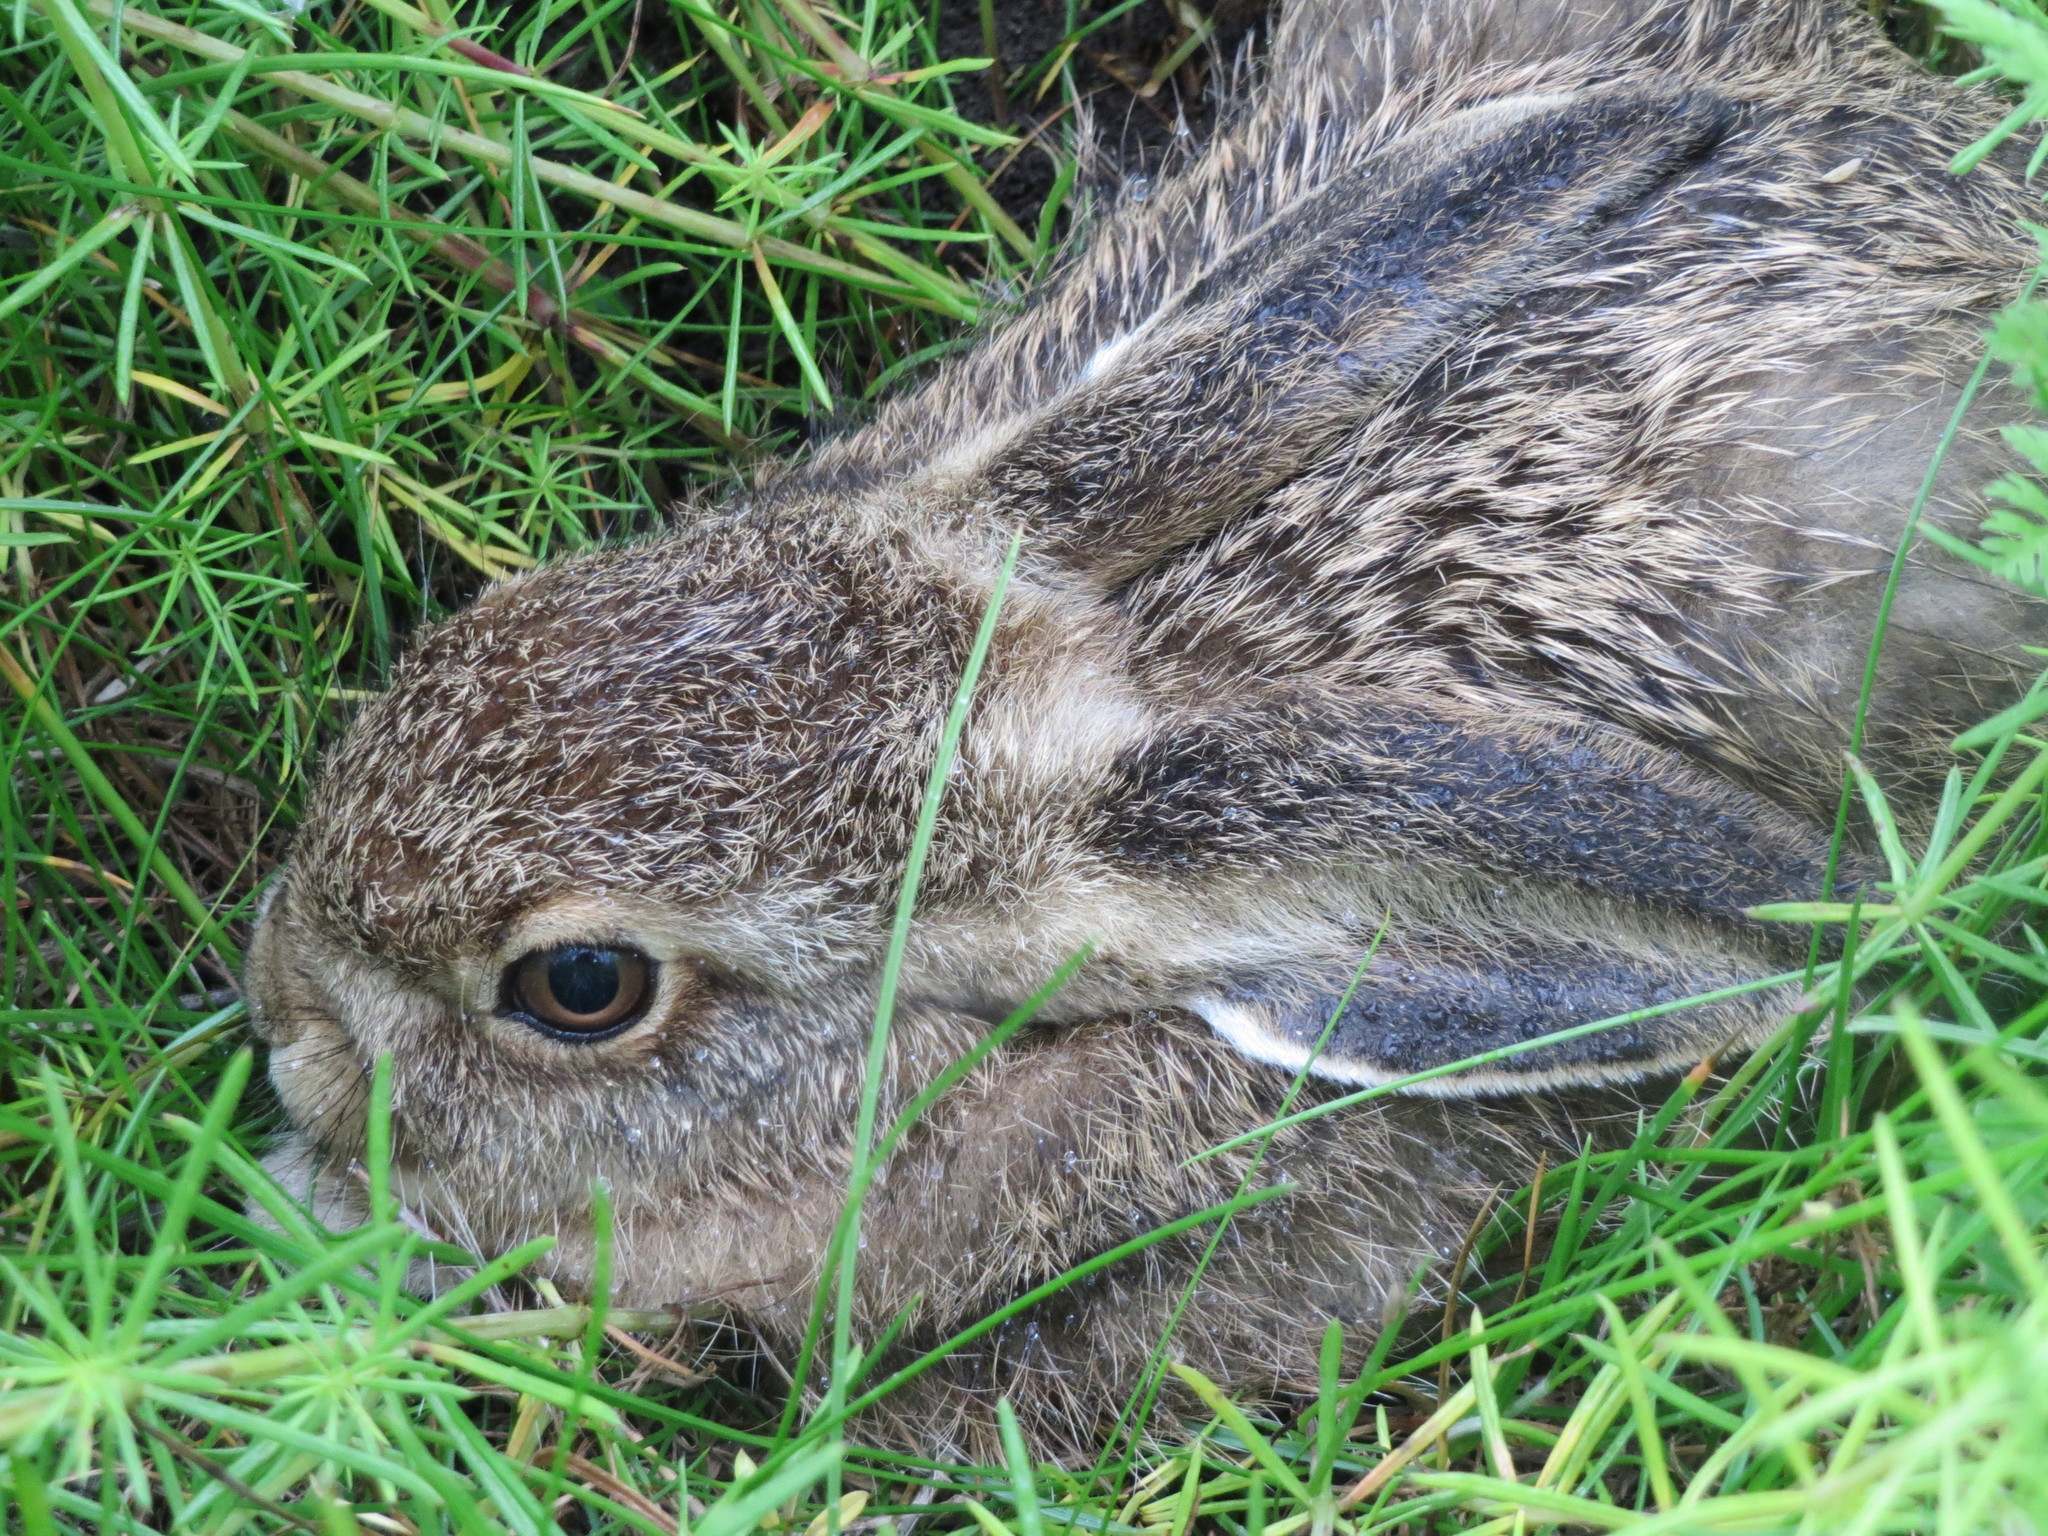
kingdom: Animalia
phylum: Chordata
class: Mammalia
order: Lagomorpha
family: Leporidae
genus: Lepus
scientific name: Lepus europaeus
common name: European hare
